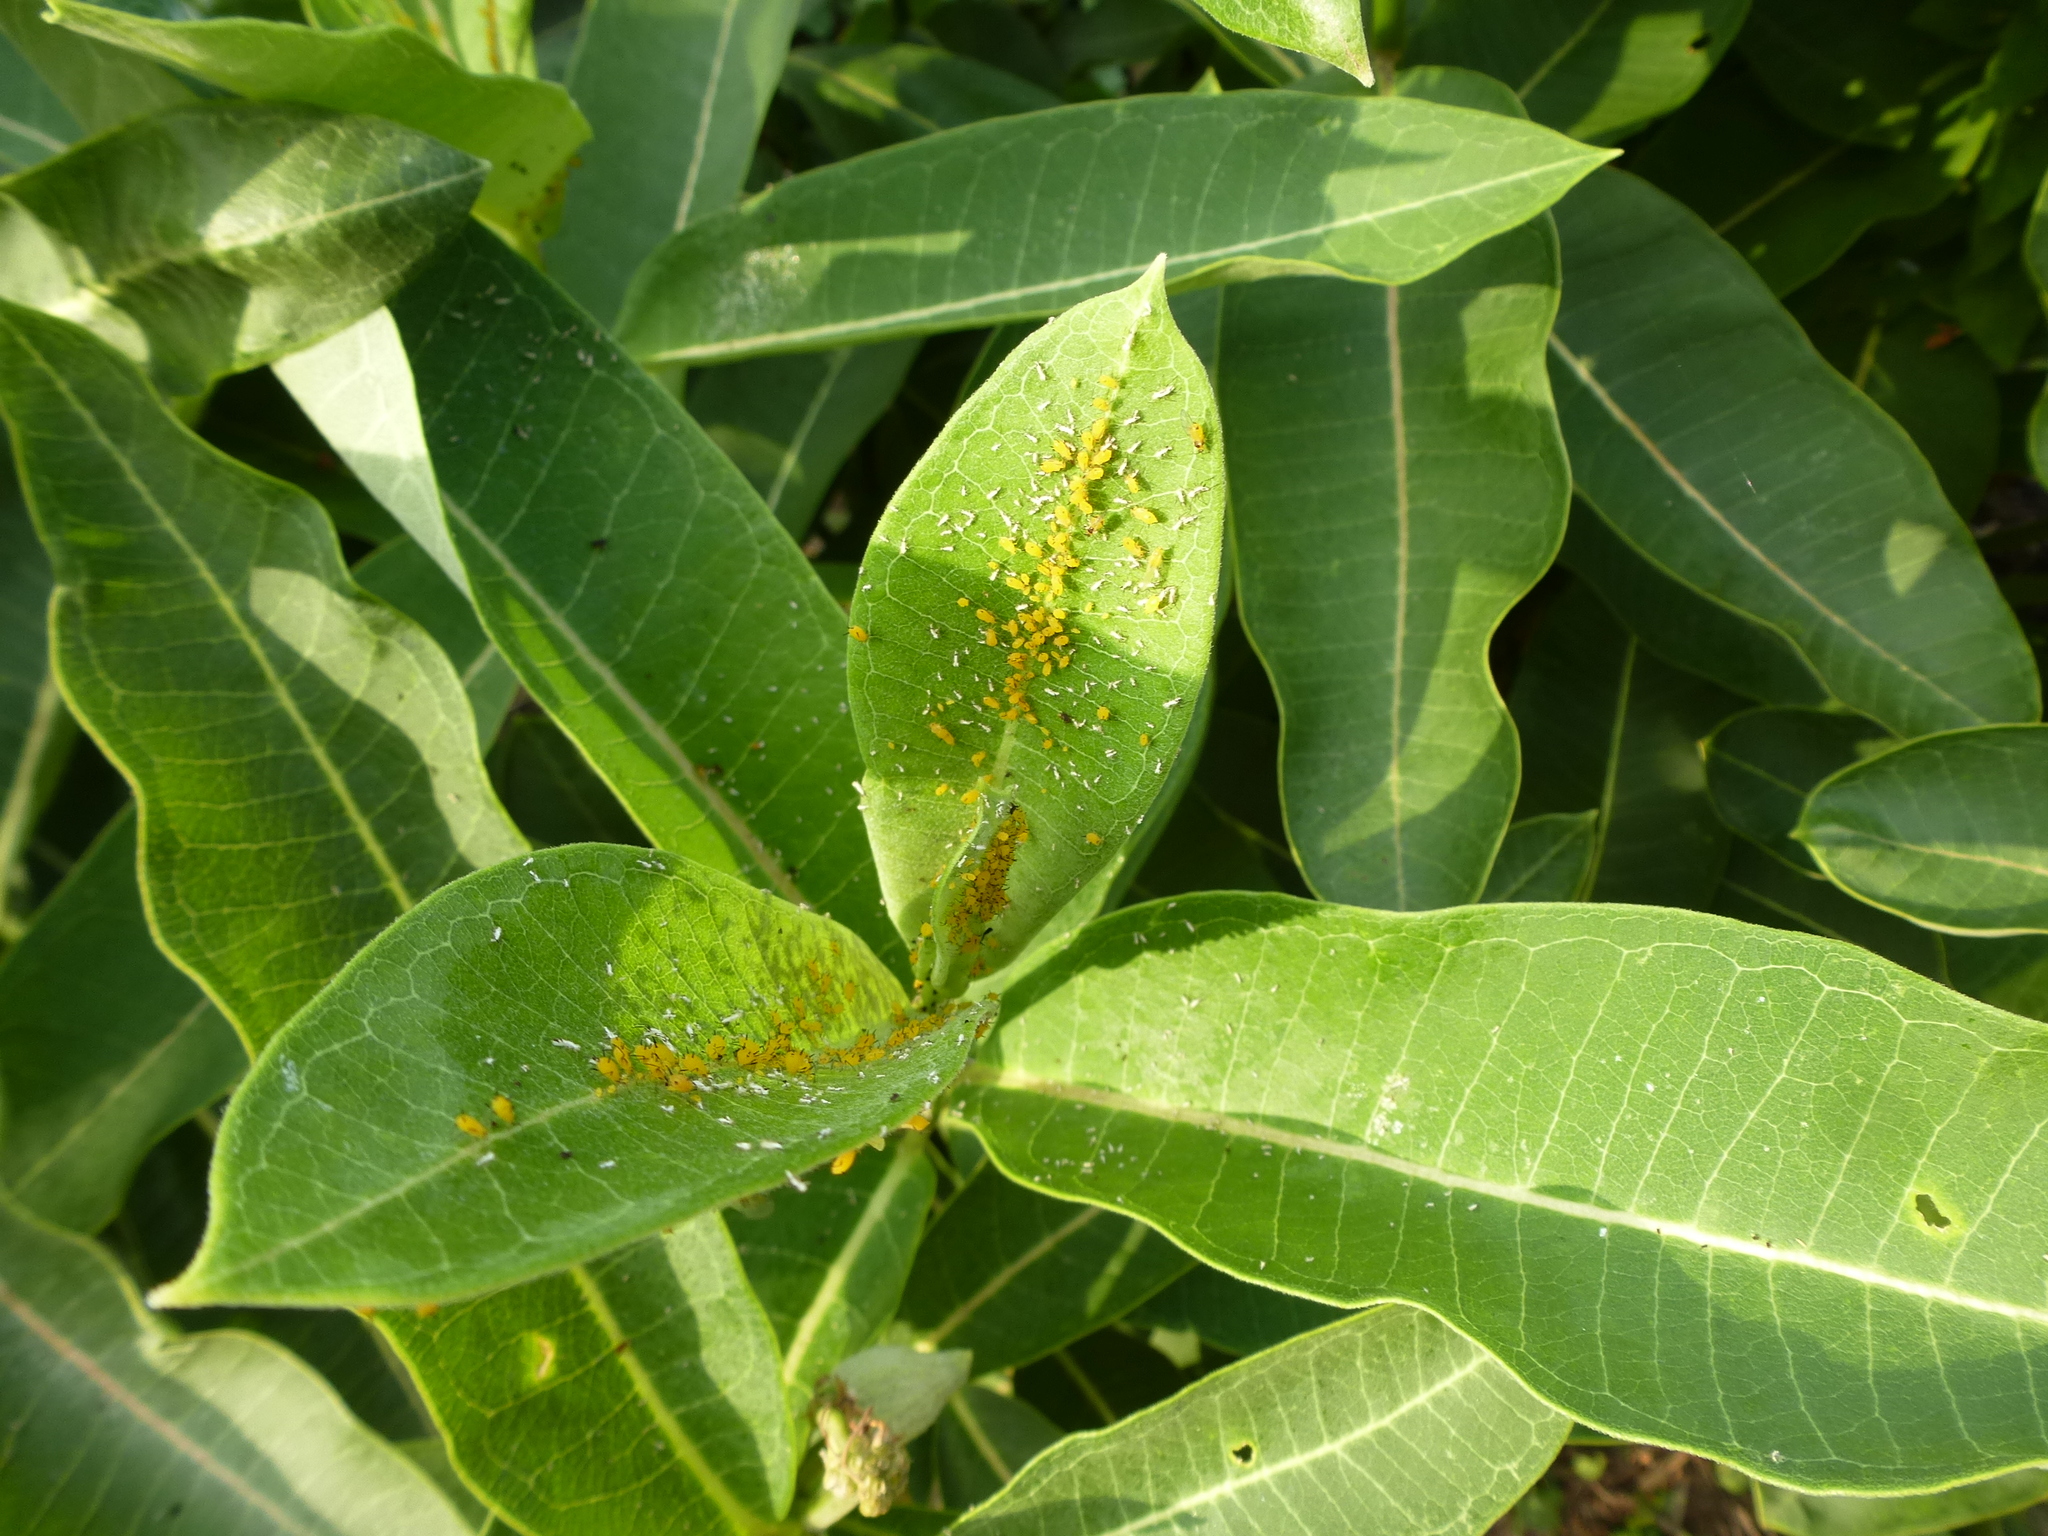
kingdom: Animalia
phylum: Arthropoda
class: Insecta
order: Hemiptera
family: Aphididae
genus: Aphis
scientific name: Aphis nerii
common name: Oleander aphid
